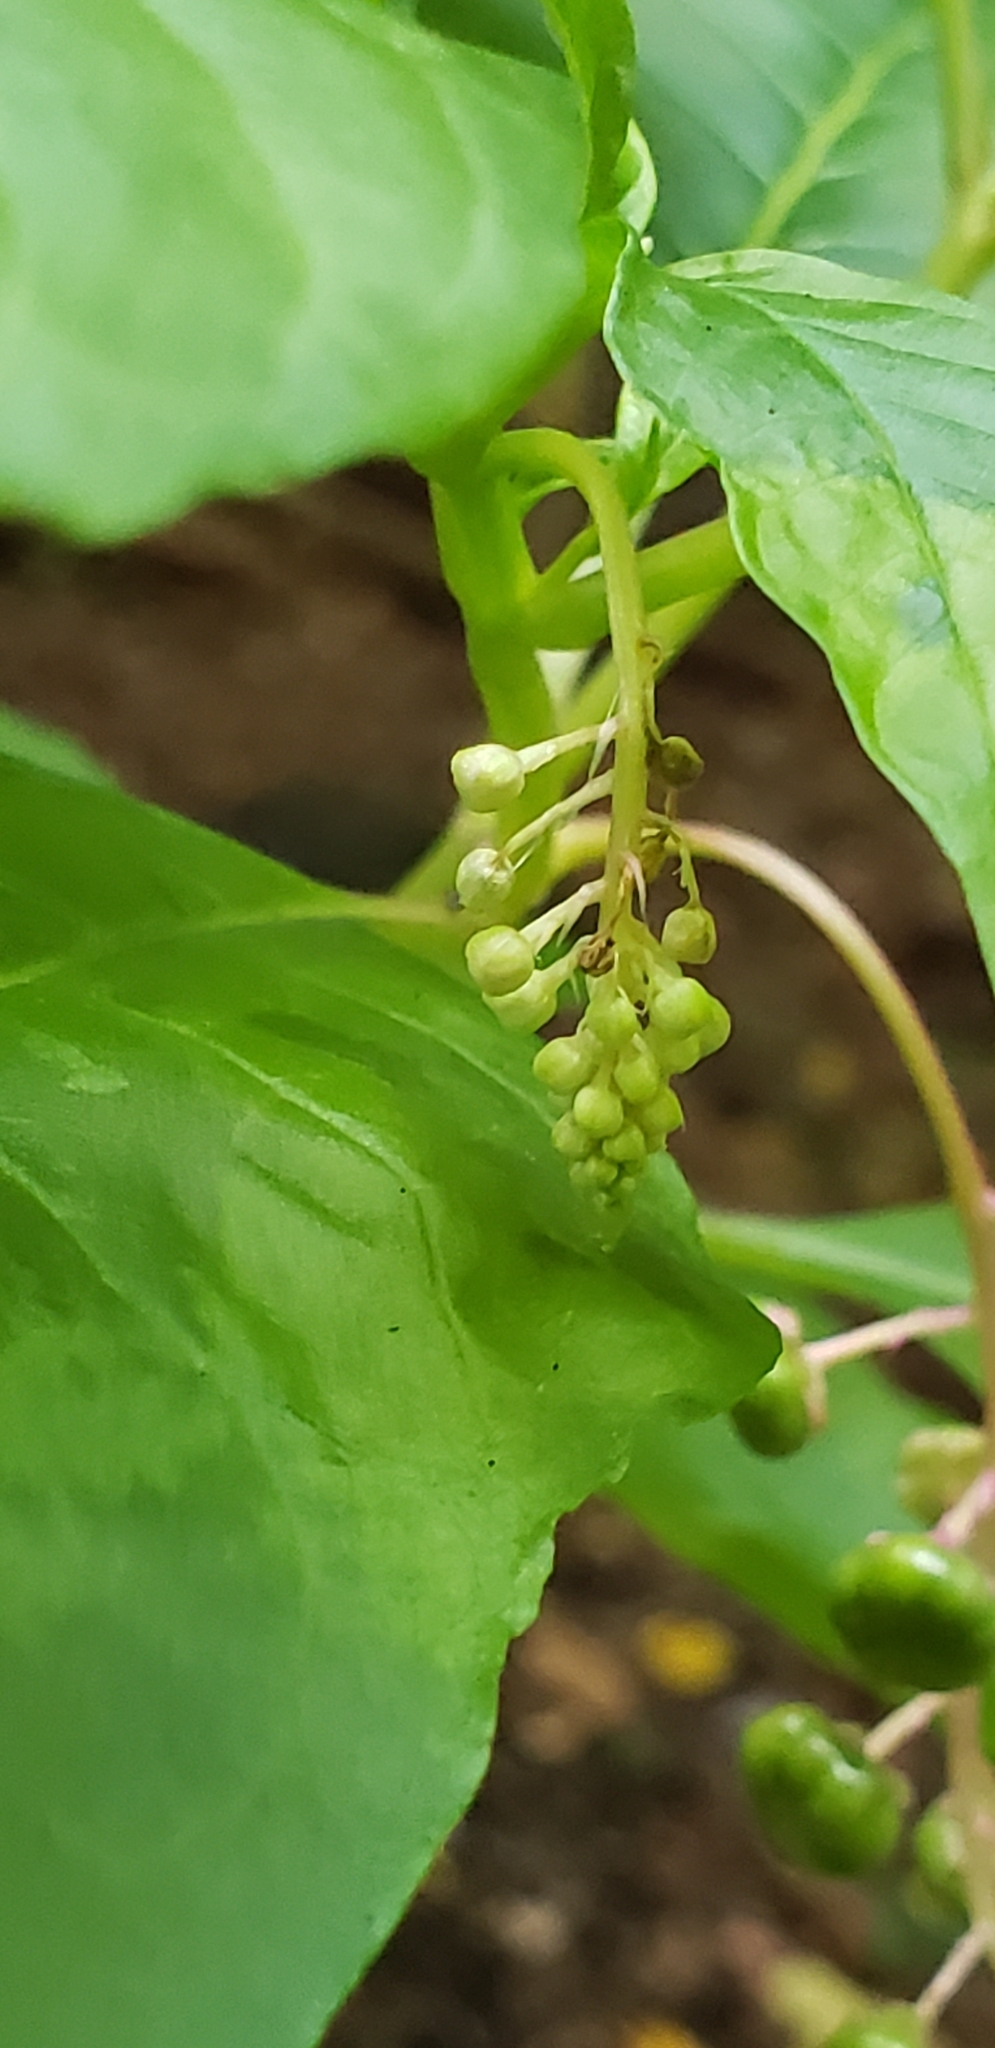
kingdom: Plantae
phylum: Tracheophyta
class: Magnoliopsida
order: Caryophyllales
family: Phytolaccaceae
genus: Phytolacca
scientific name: Phytolacca americana
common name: American pokeweed
